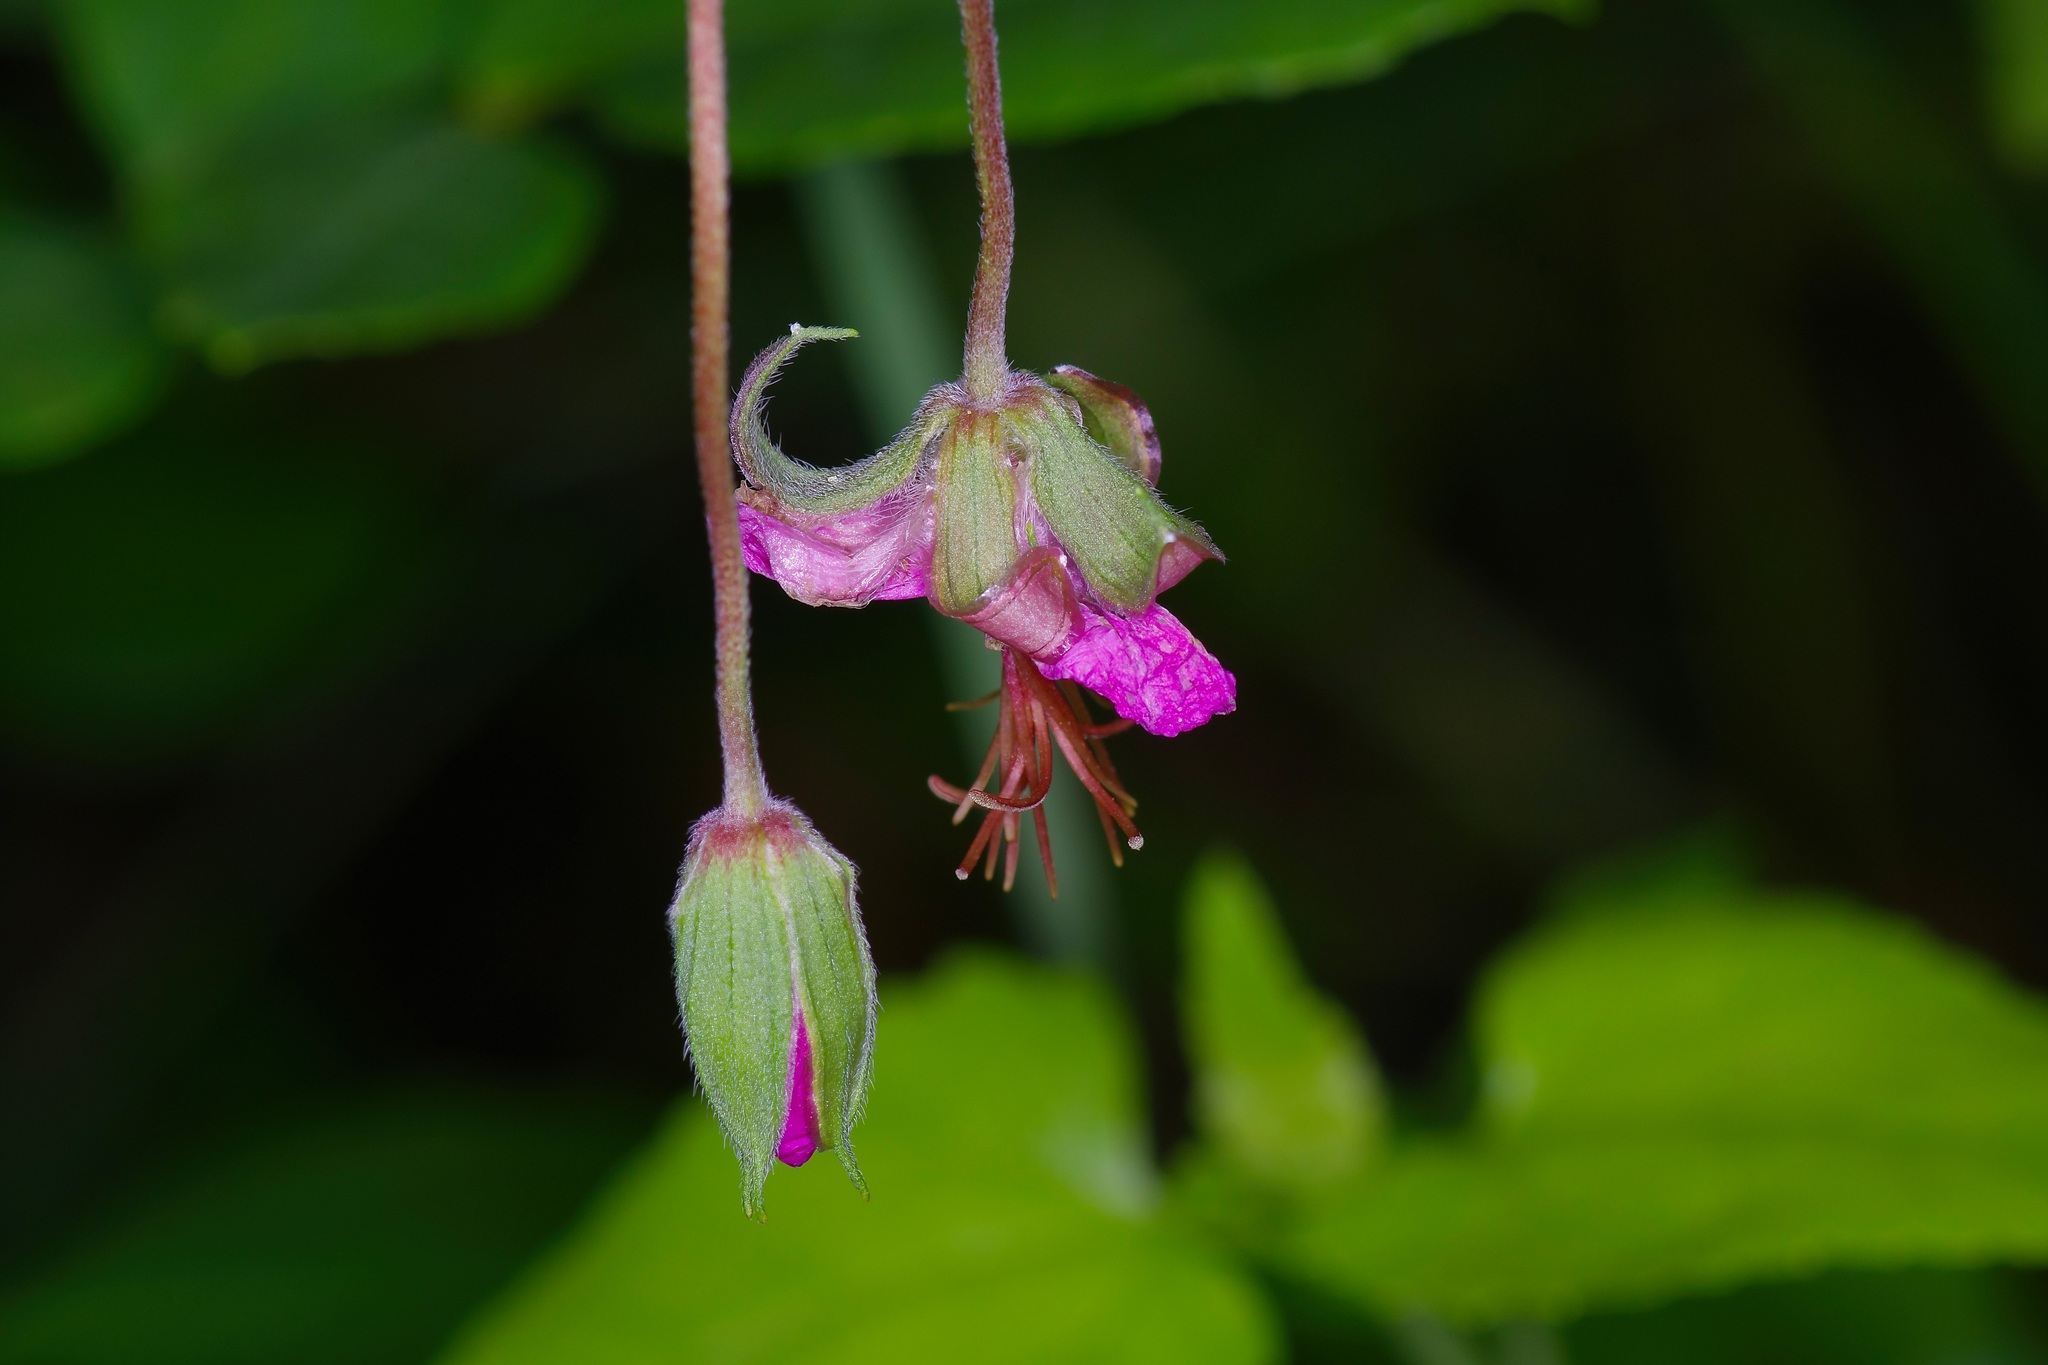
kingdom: Plantae
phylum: Tracheophyta
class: Magnoliopsida
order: Geraniales
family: Geraniaceae
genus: Geranium
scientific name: Geranium caespitosum
